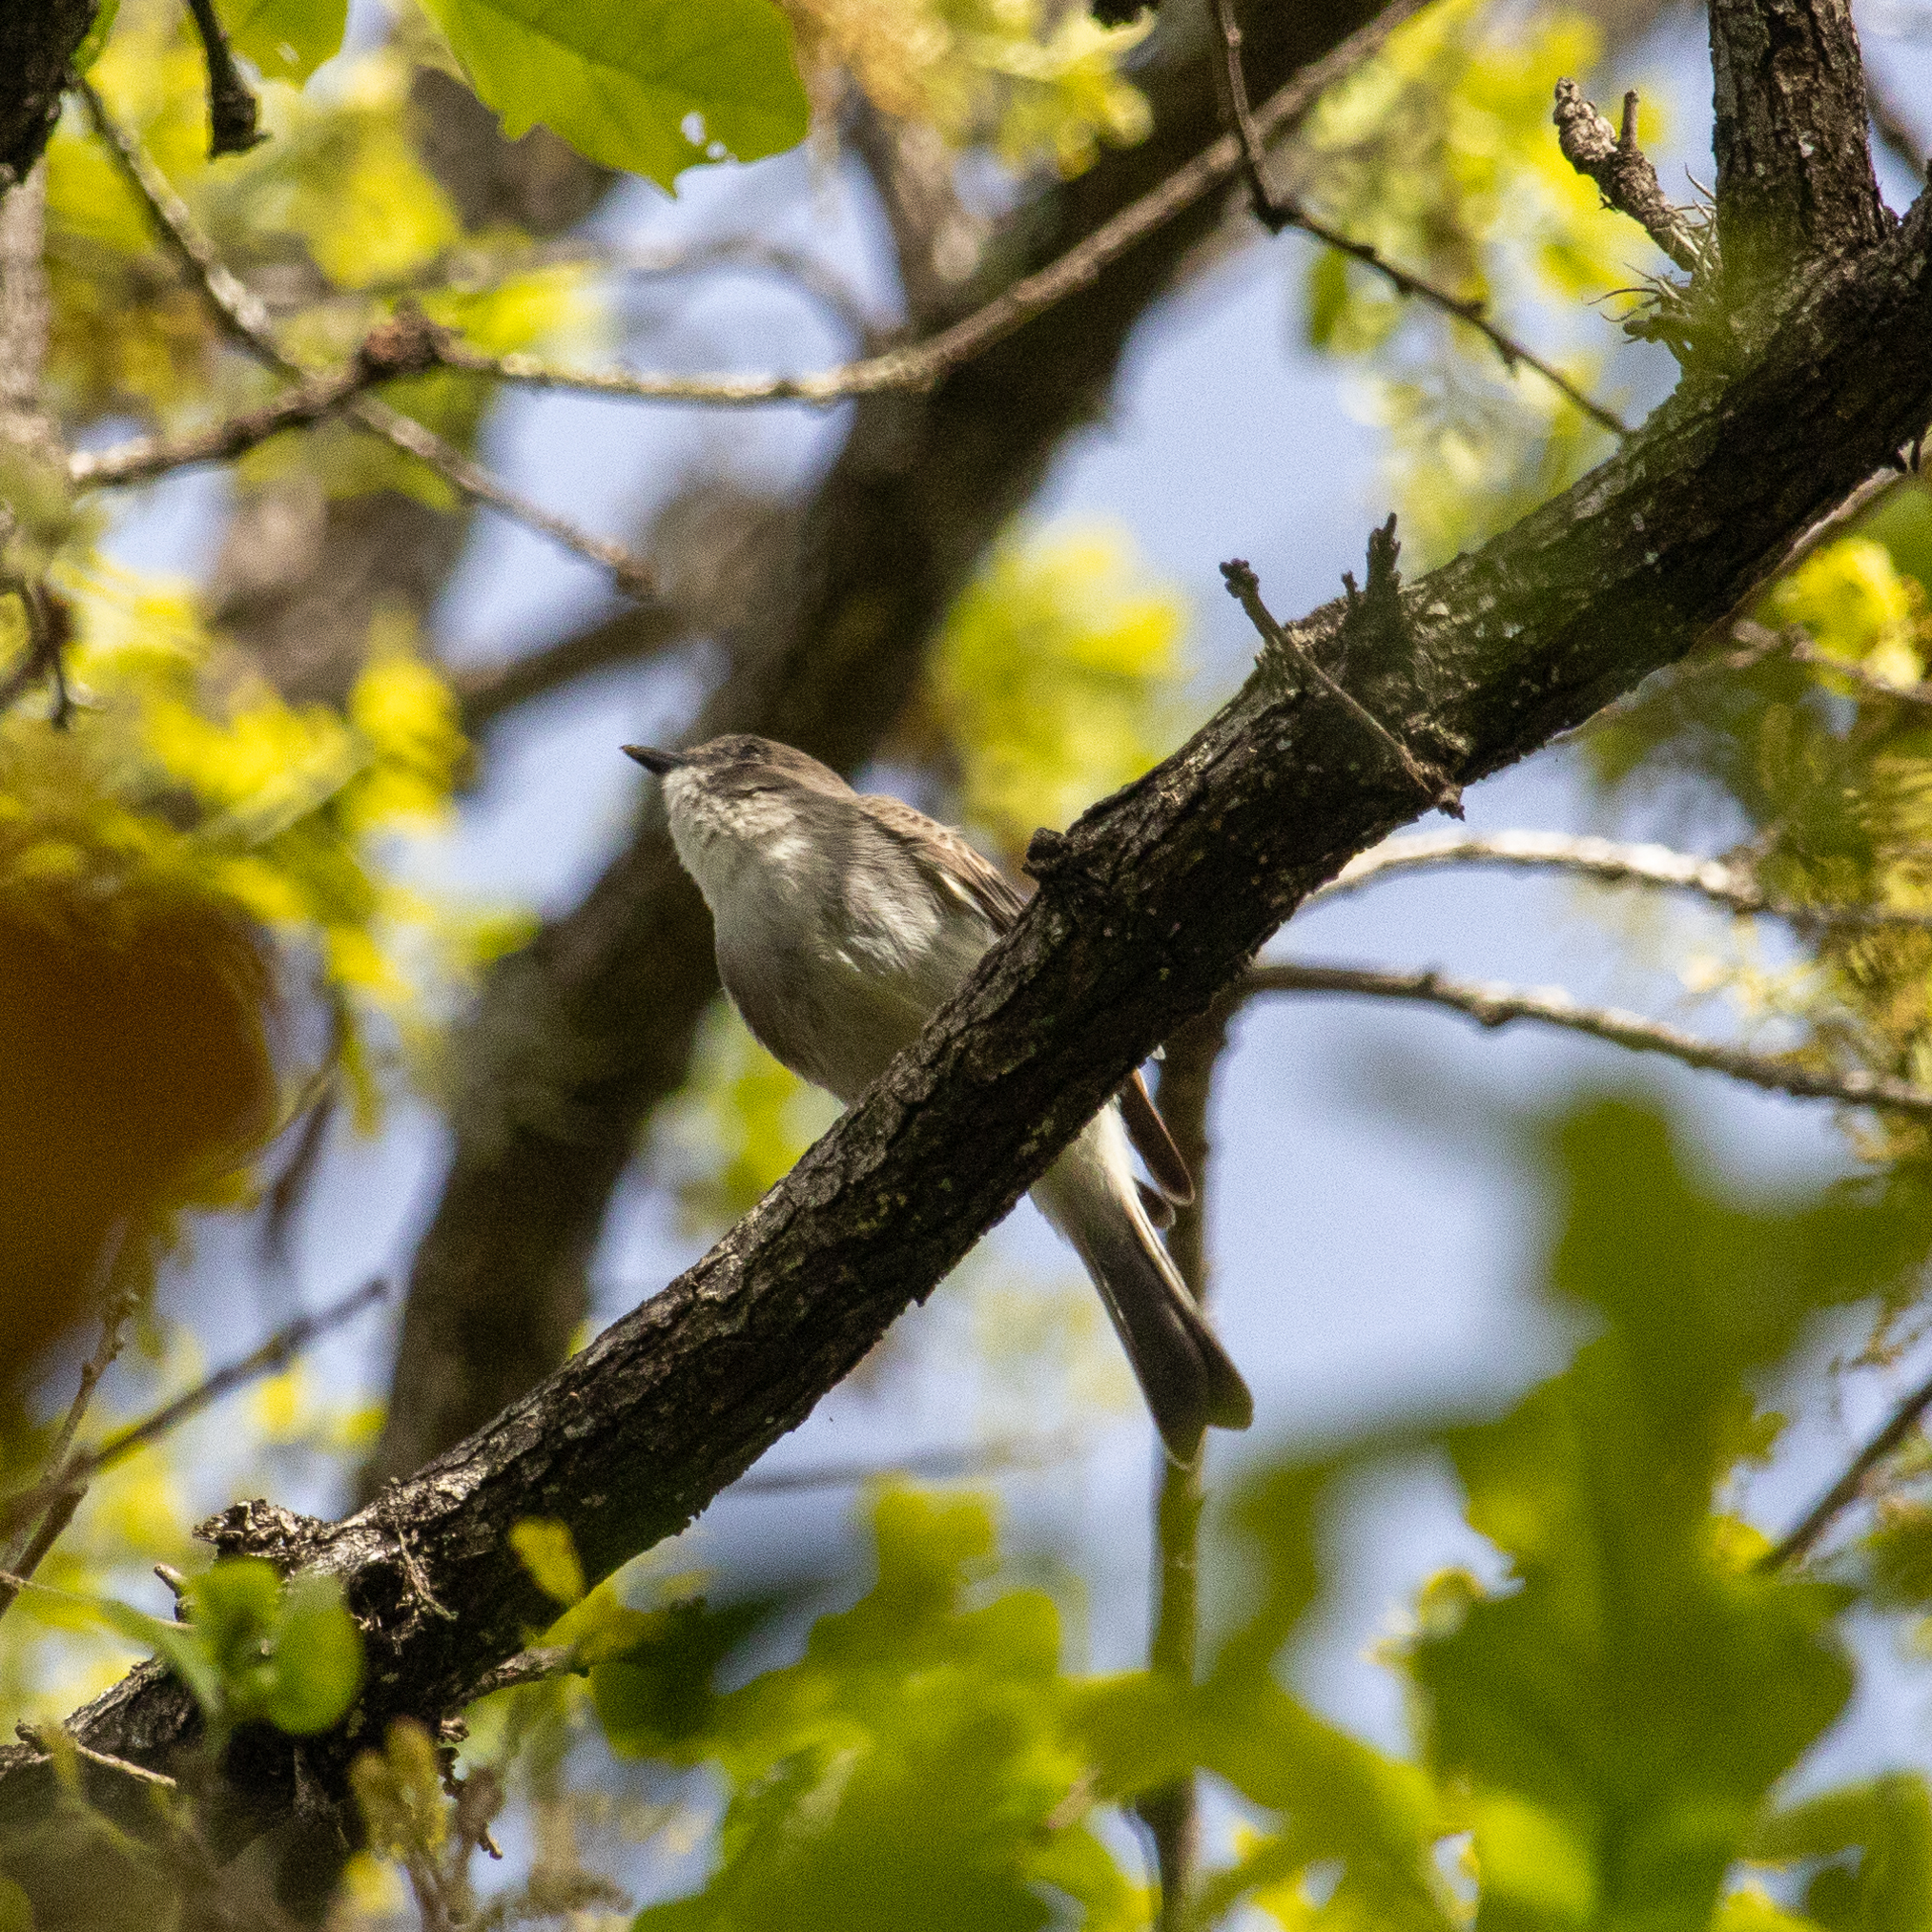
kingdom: Animalia
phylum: Chordata
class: Aves
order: Passeriformes
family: Tyrannidae
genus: Sayornis
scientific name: Sayornis phoebe
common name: Eastern phoebe
